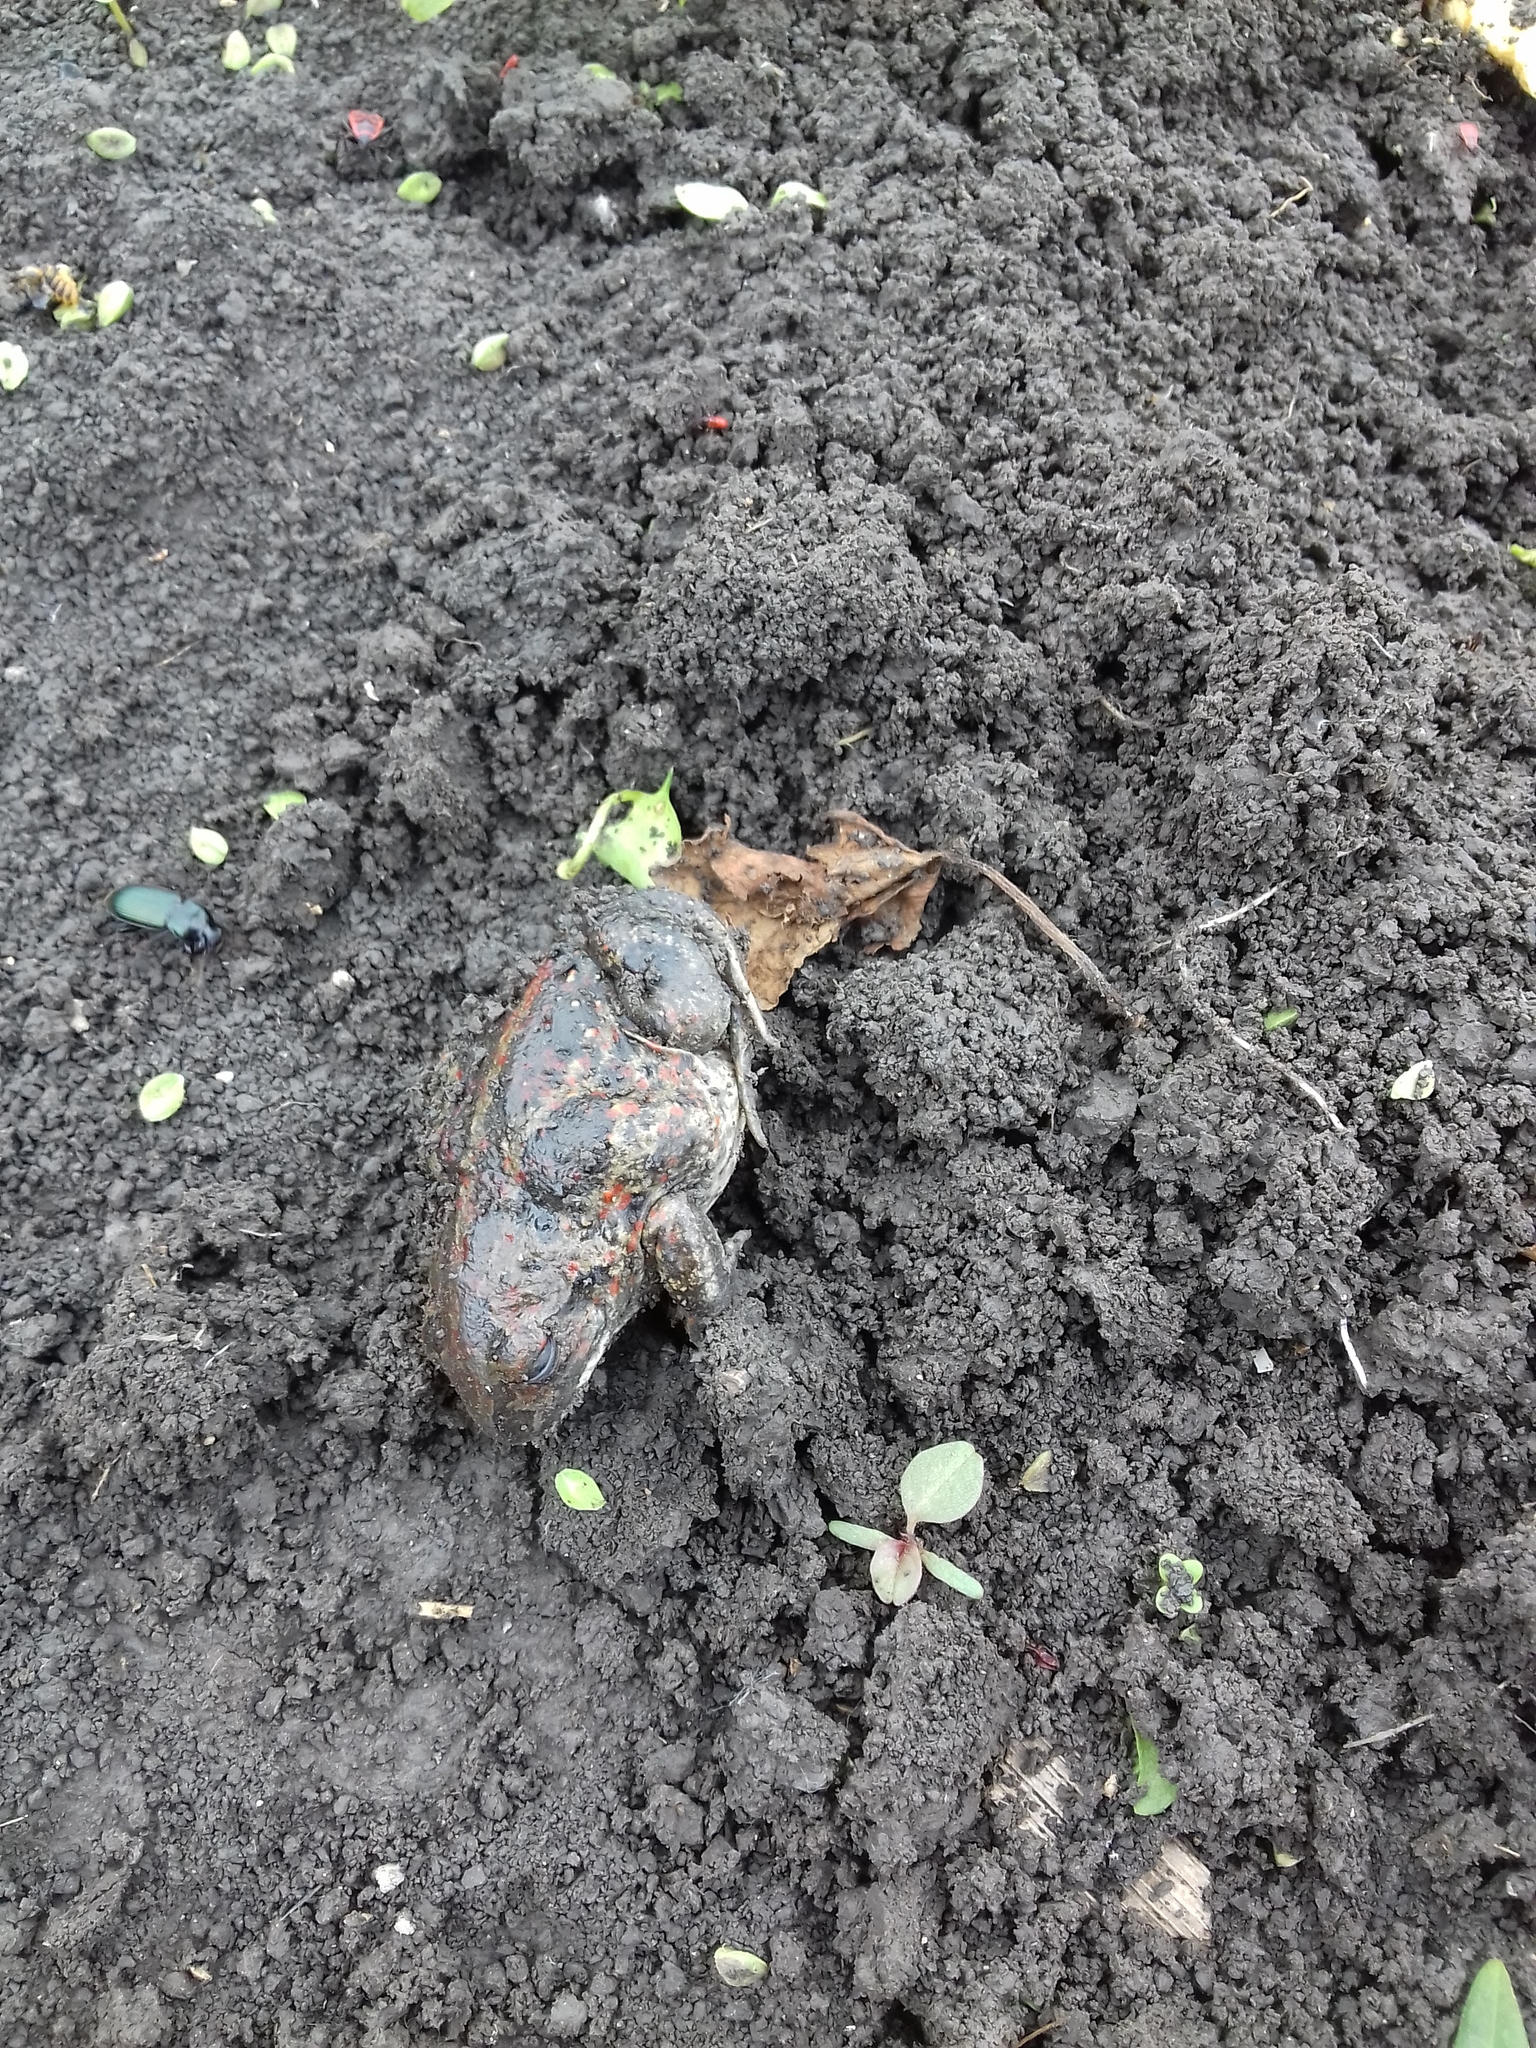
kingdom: Animalia
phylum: Chordata
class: Amphibia
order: Anura
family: Pelobatidae
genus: Pelobates
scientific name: Pelobates fuscus
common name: Common eurasian spadefoot toad
